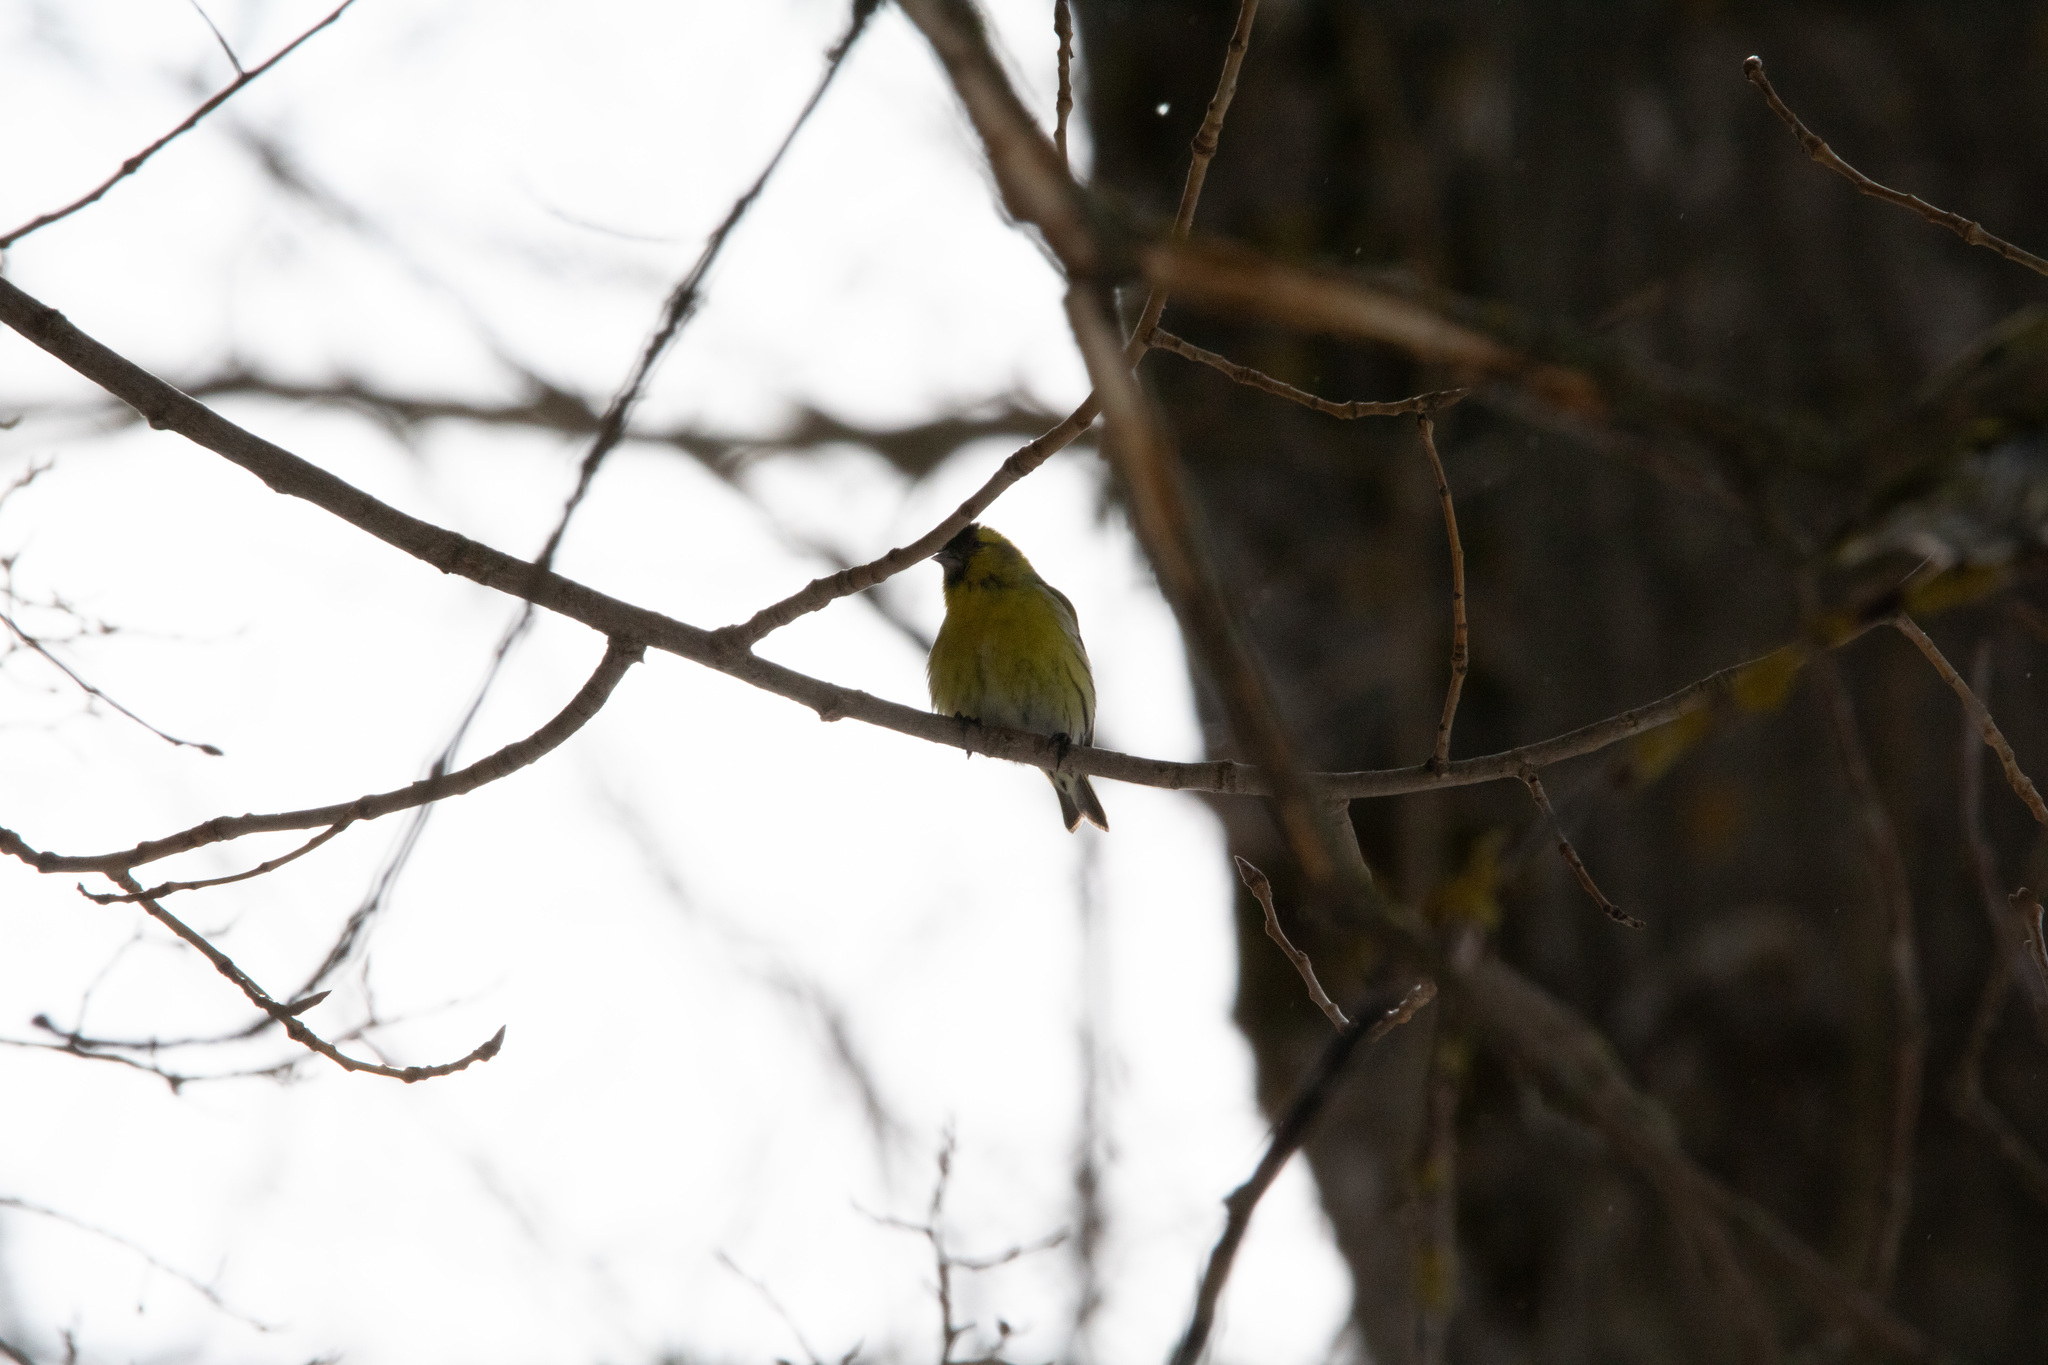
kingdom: Animalia
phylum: Chordata
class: Aves
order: Passeriformes
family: Fringillidae
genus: Spinus
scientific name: Spinus spinus
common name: Eurasian siskin
